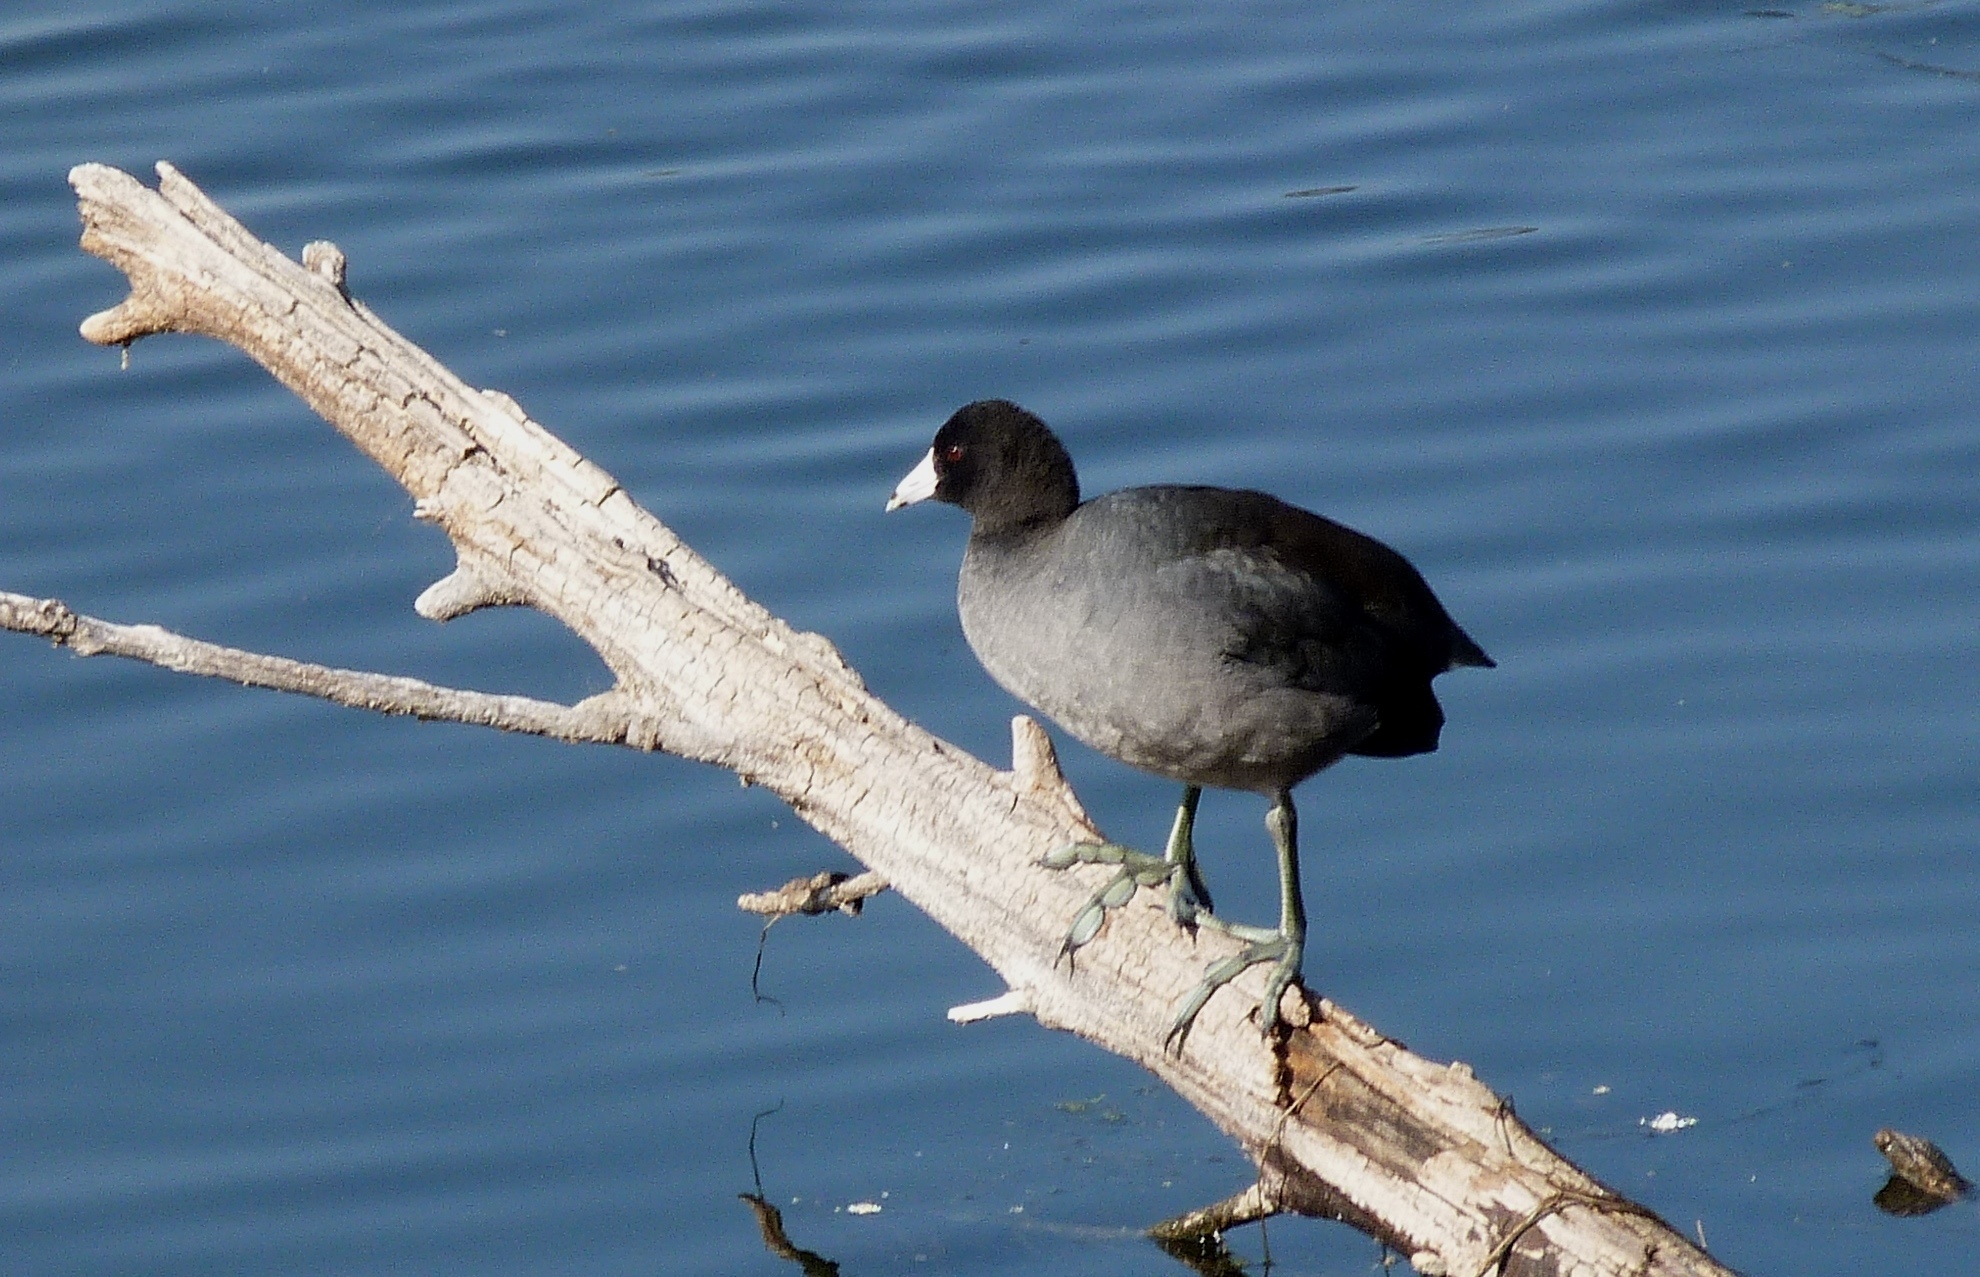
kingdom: Animalia
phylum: Chordata
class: Aves
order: Gruiformes
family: Rallidae
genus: Fulica
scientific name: Fulica americana
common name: American coot
